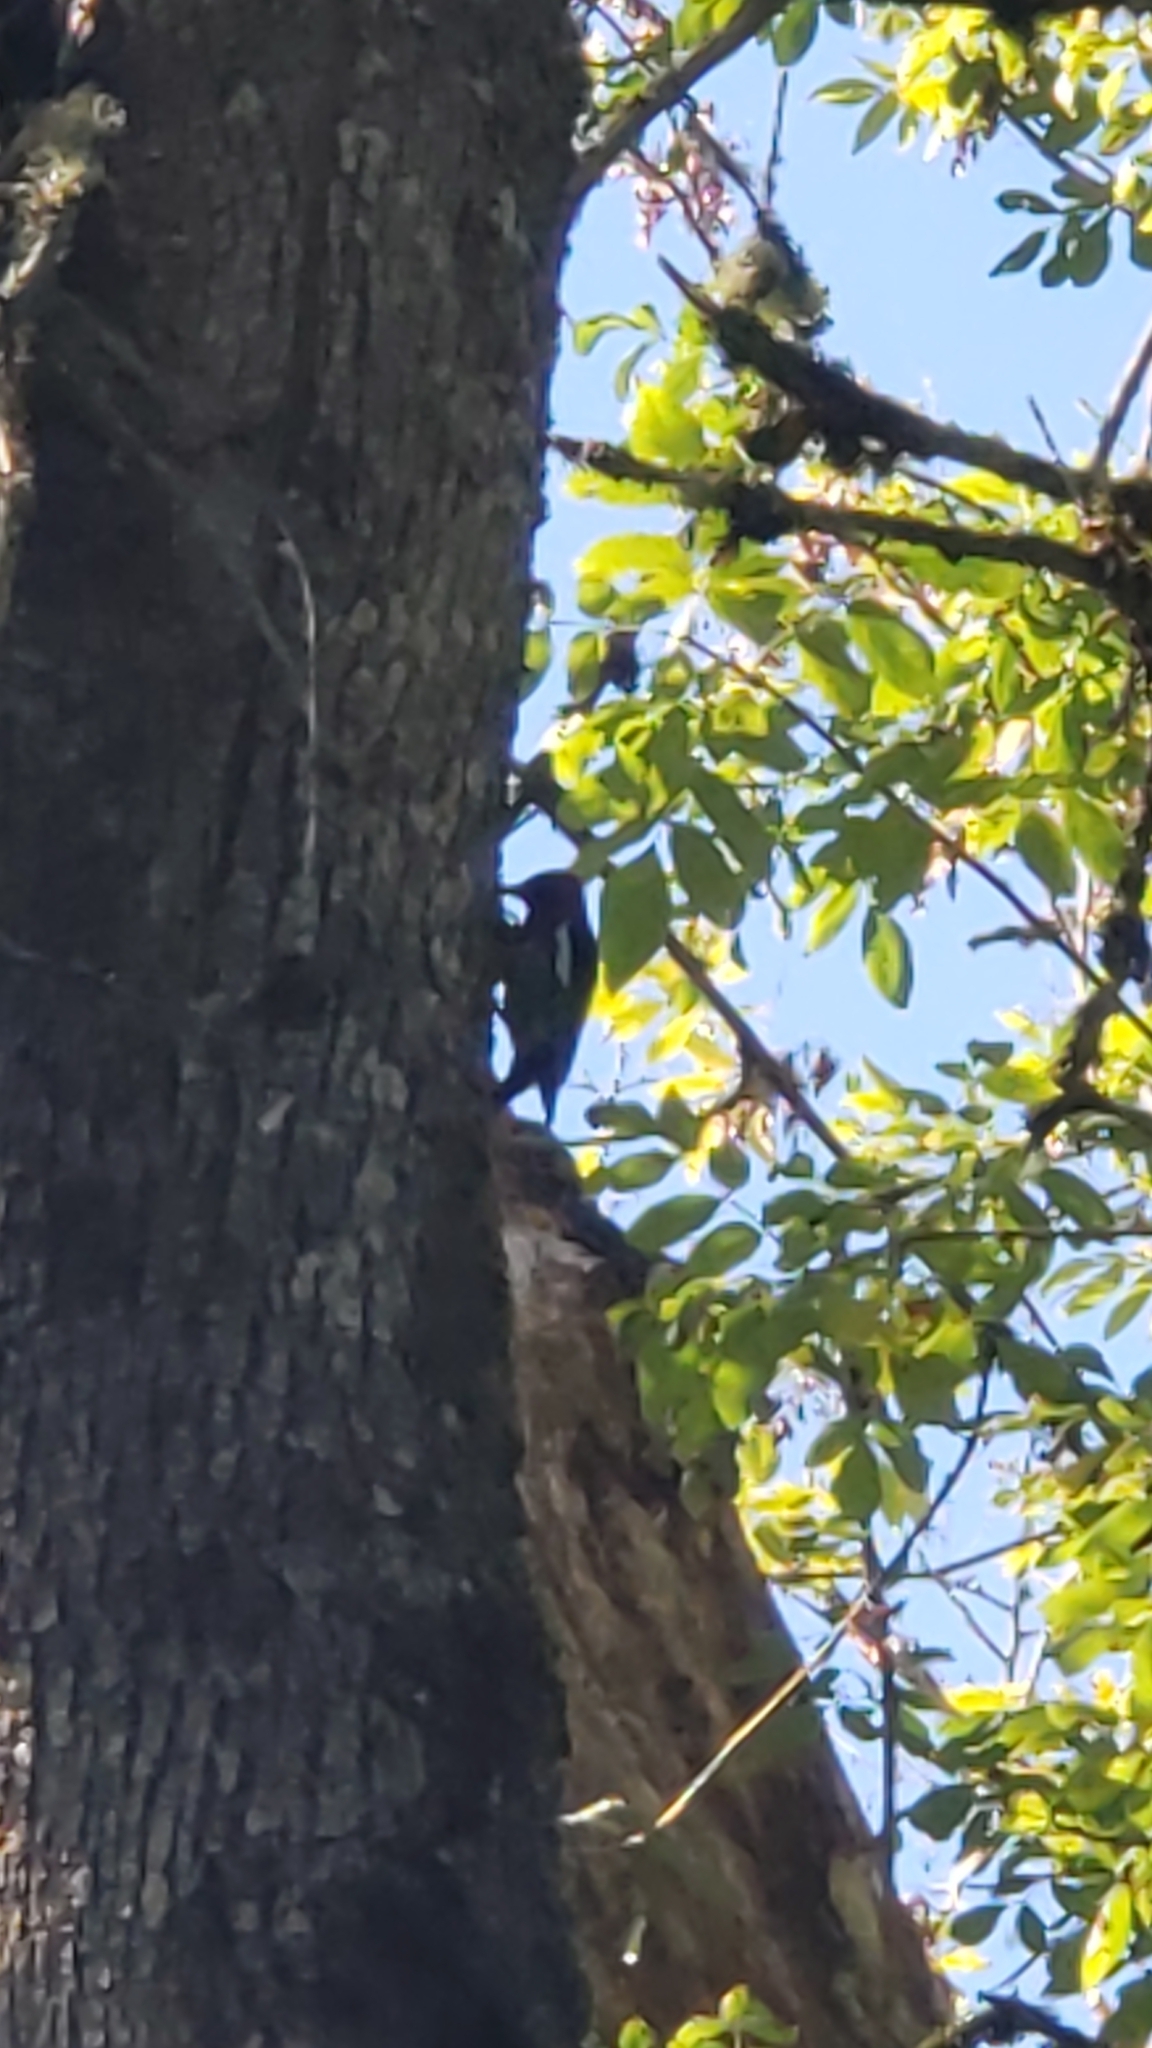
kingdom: Animalia
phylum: Chordata
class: Aves
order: Piciformes
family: Picidae
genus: Sphyrapicus
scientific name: Sphyrapicus ruber
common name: Red-breasted sapsucker
